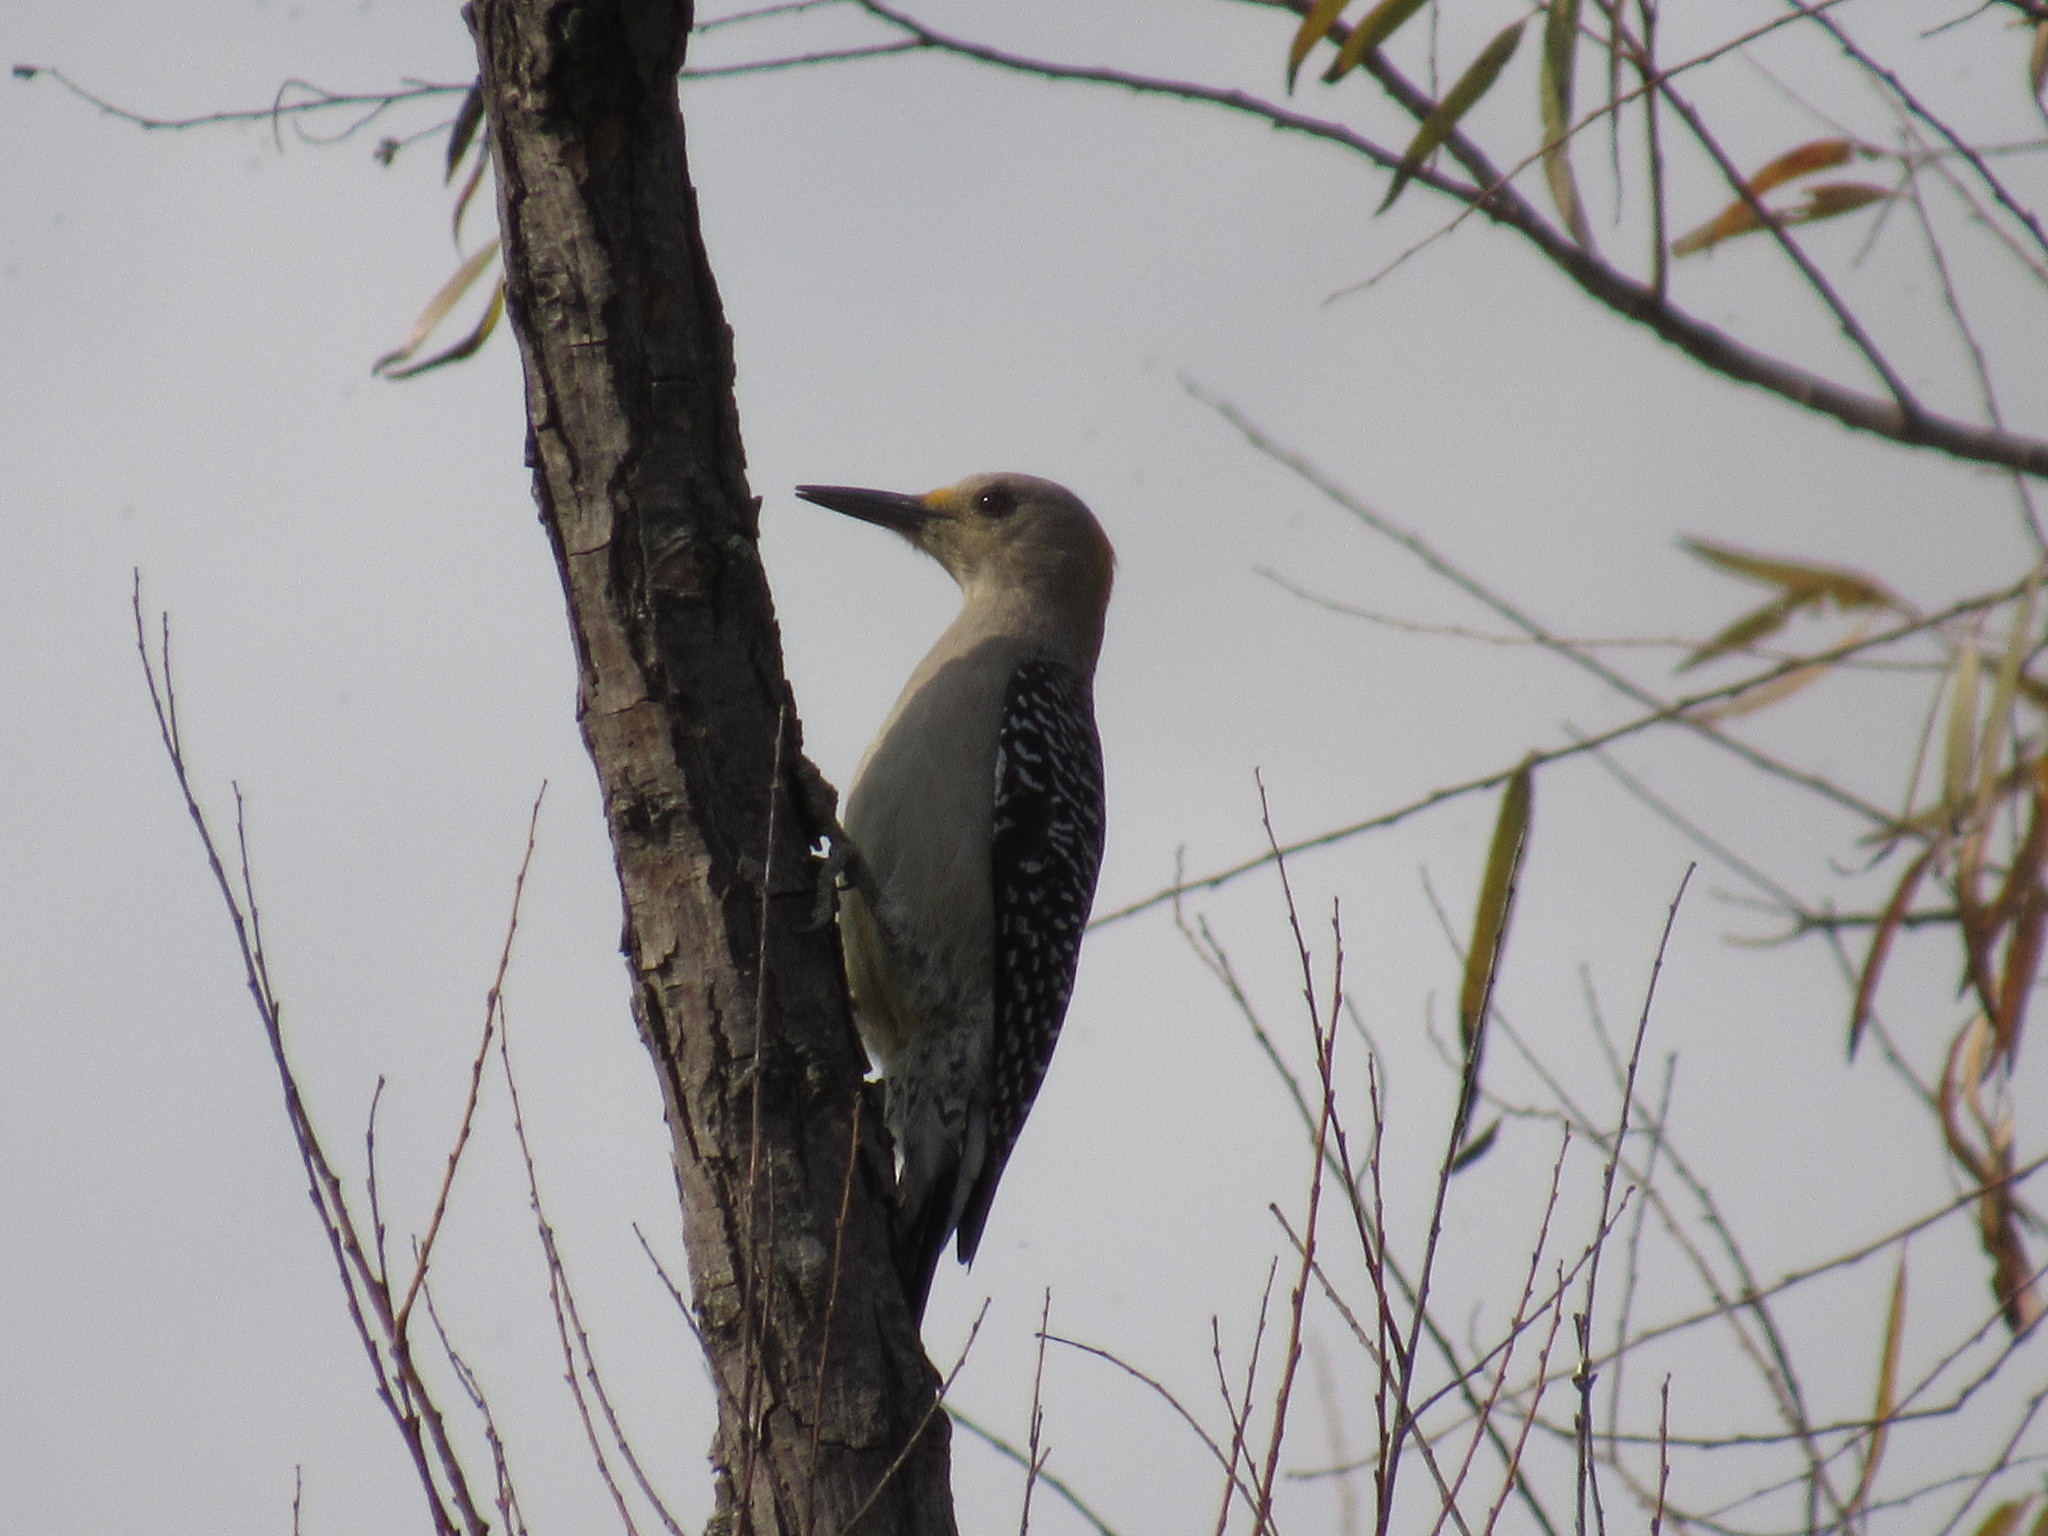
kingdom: Animalia
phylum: Chordata
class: Aves
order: Piciformes
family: Picidae
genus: Melanerpes
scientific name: Melanerpes aurifrons
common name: Golden-fronted woodpecker
